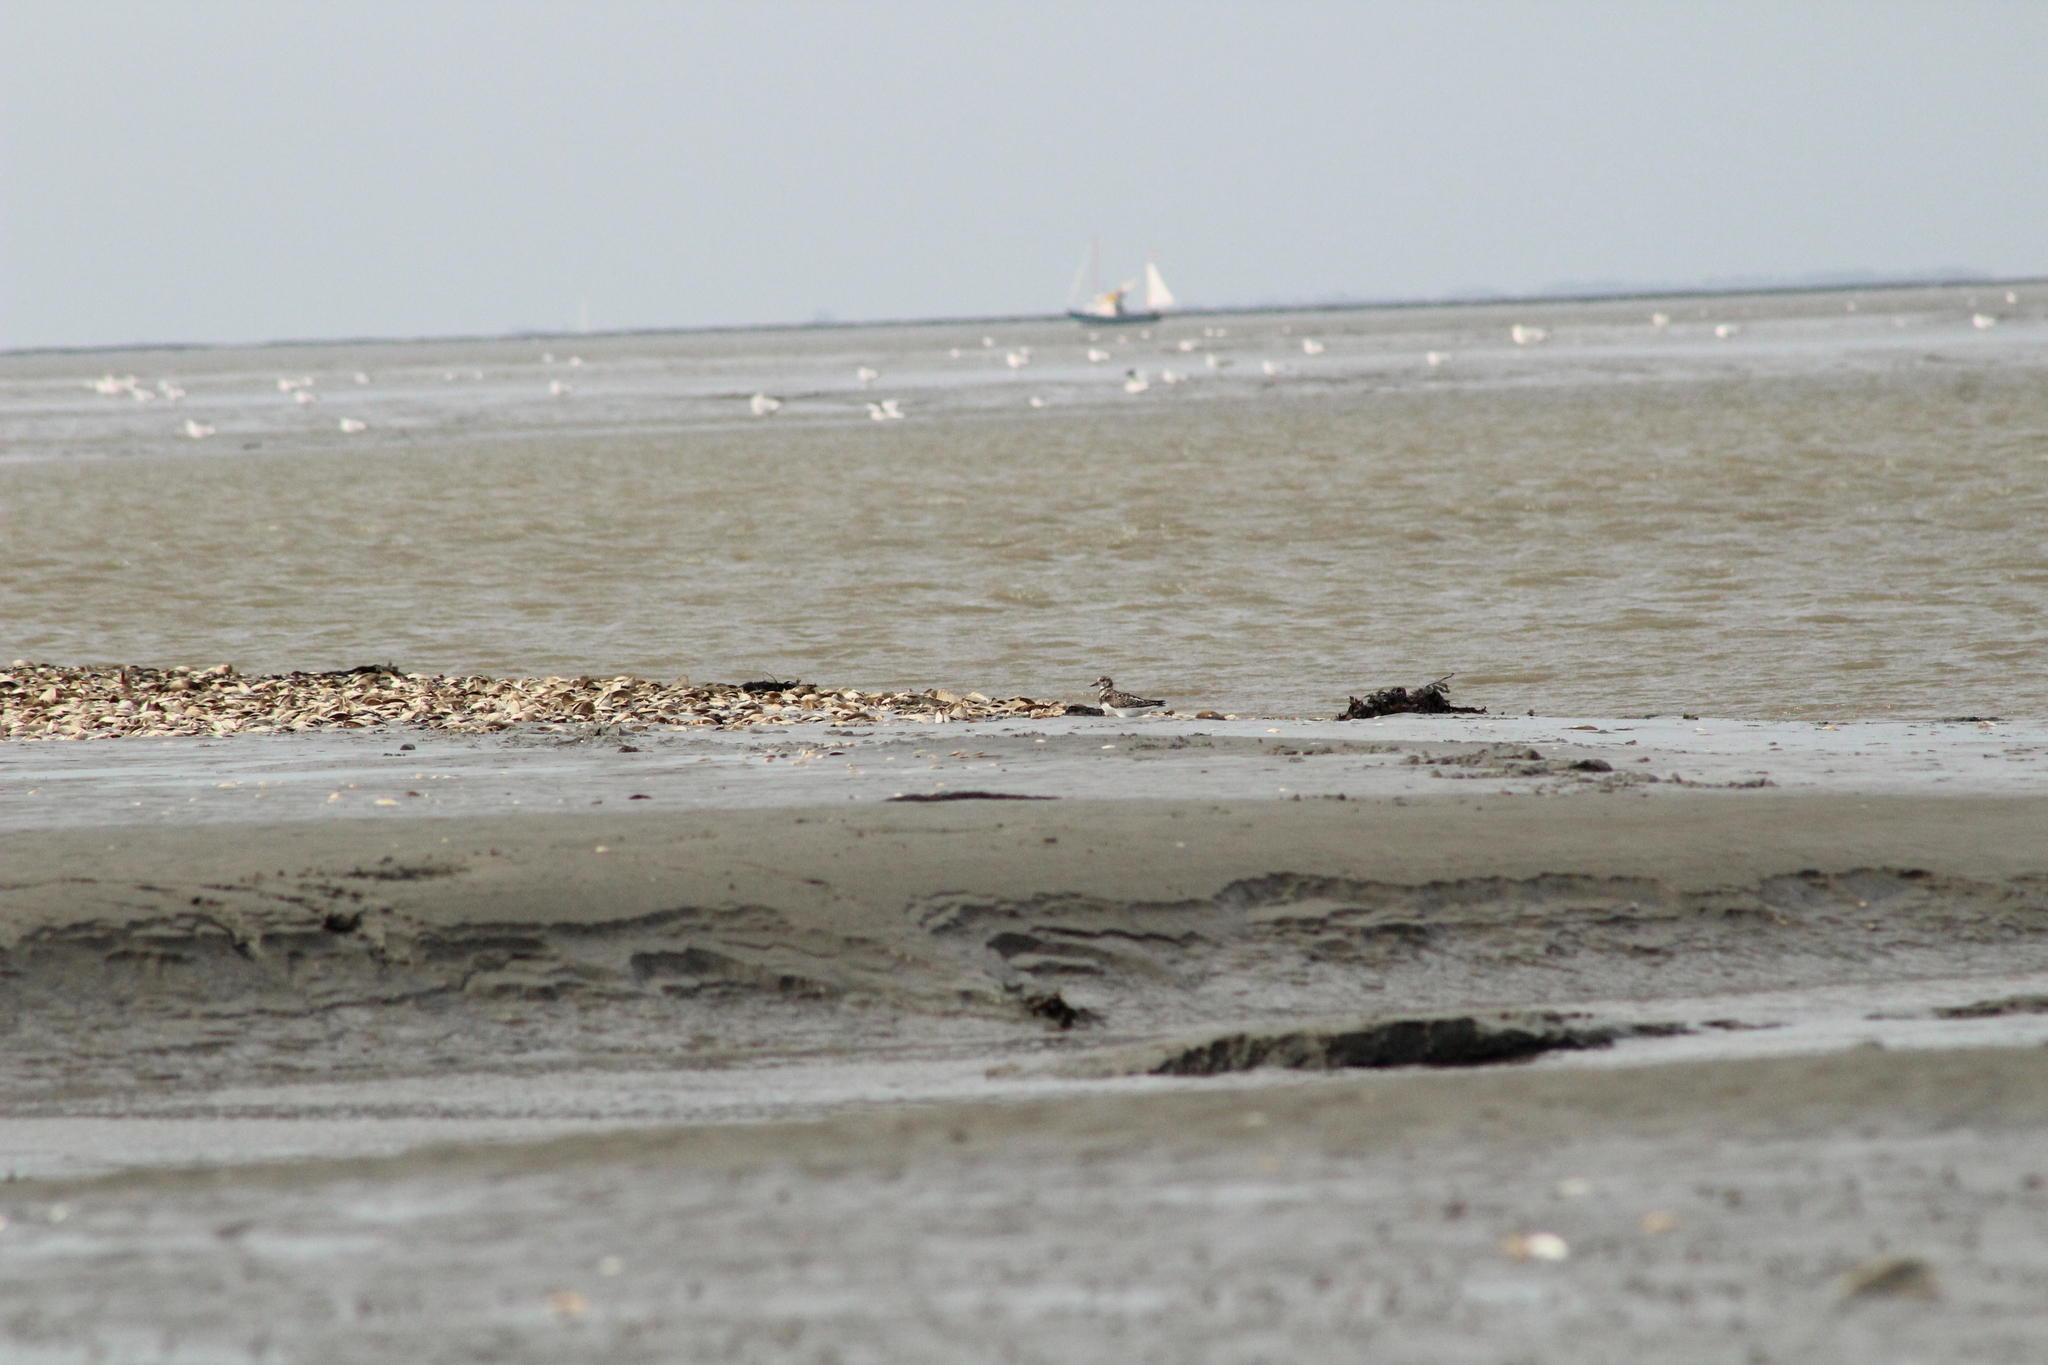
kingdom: Animalia
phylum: Chordata
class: Aves
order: Charadriiformes
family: Scolopacidae
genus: Arenaria
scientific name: Arenaria interpres
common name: Ruddy turnstone
